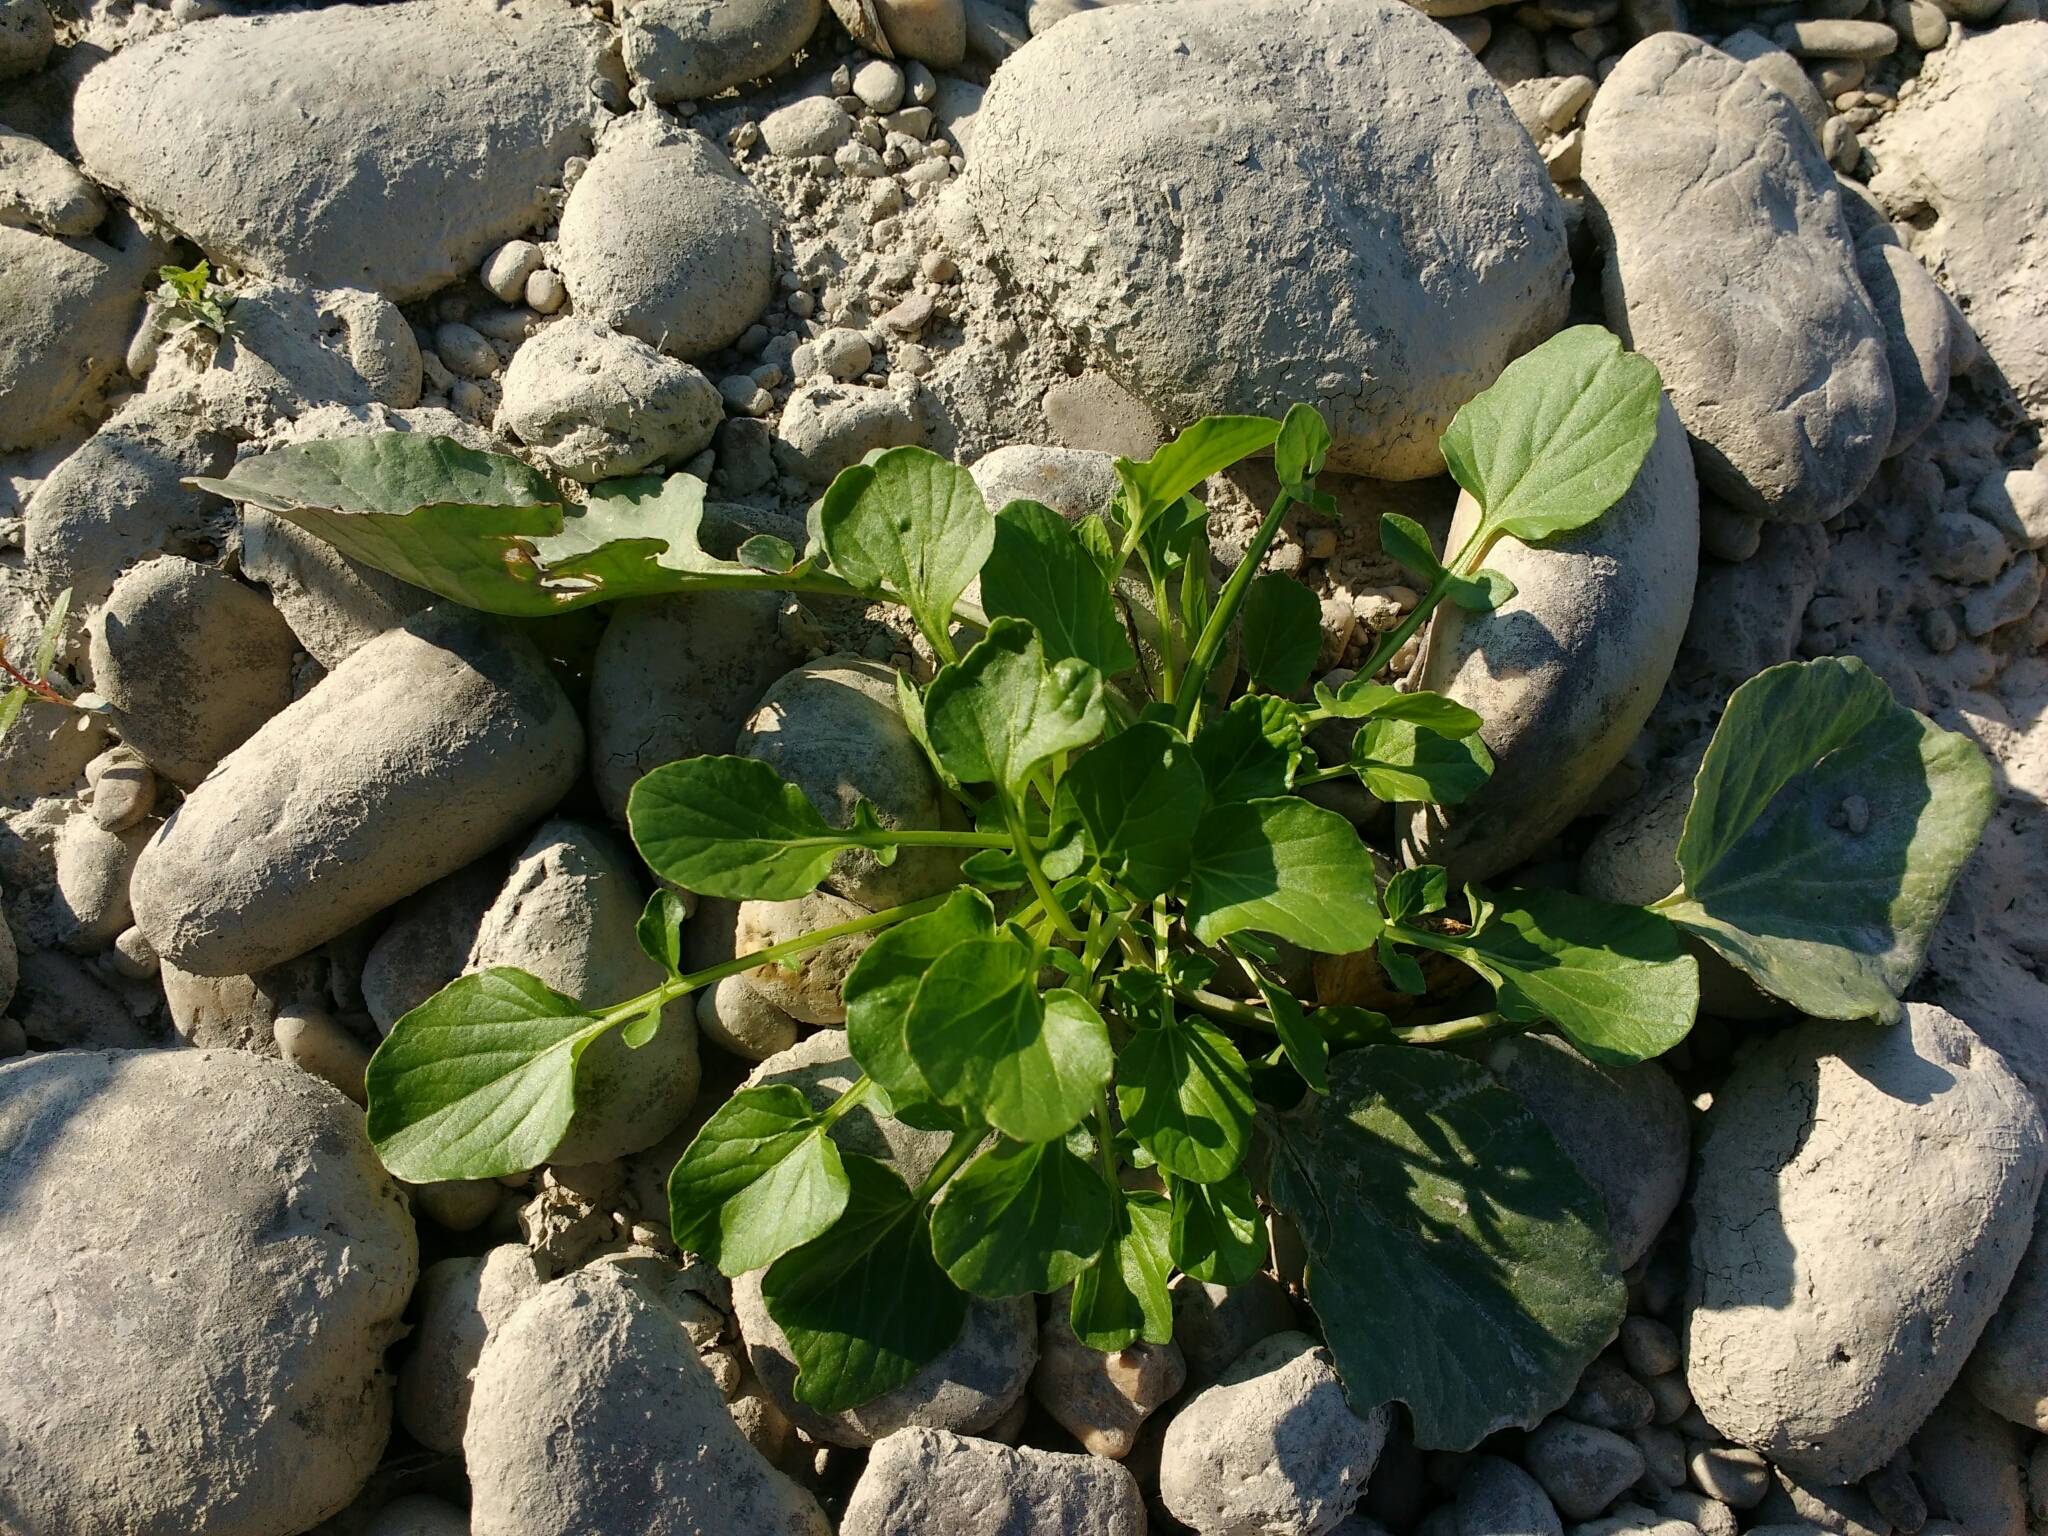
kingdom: Plantae
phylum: Tracheophyta
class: Magnoliopsida
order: Brassicales
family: Brassicaceae
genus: Barbarea
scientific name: Barbarea vulgaris
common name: Cressy-greens
